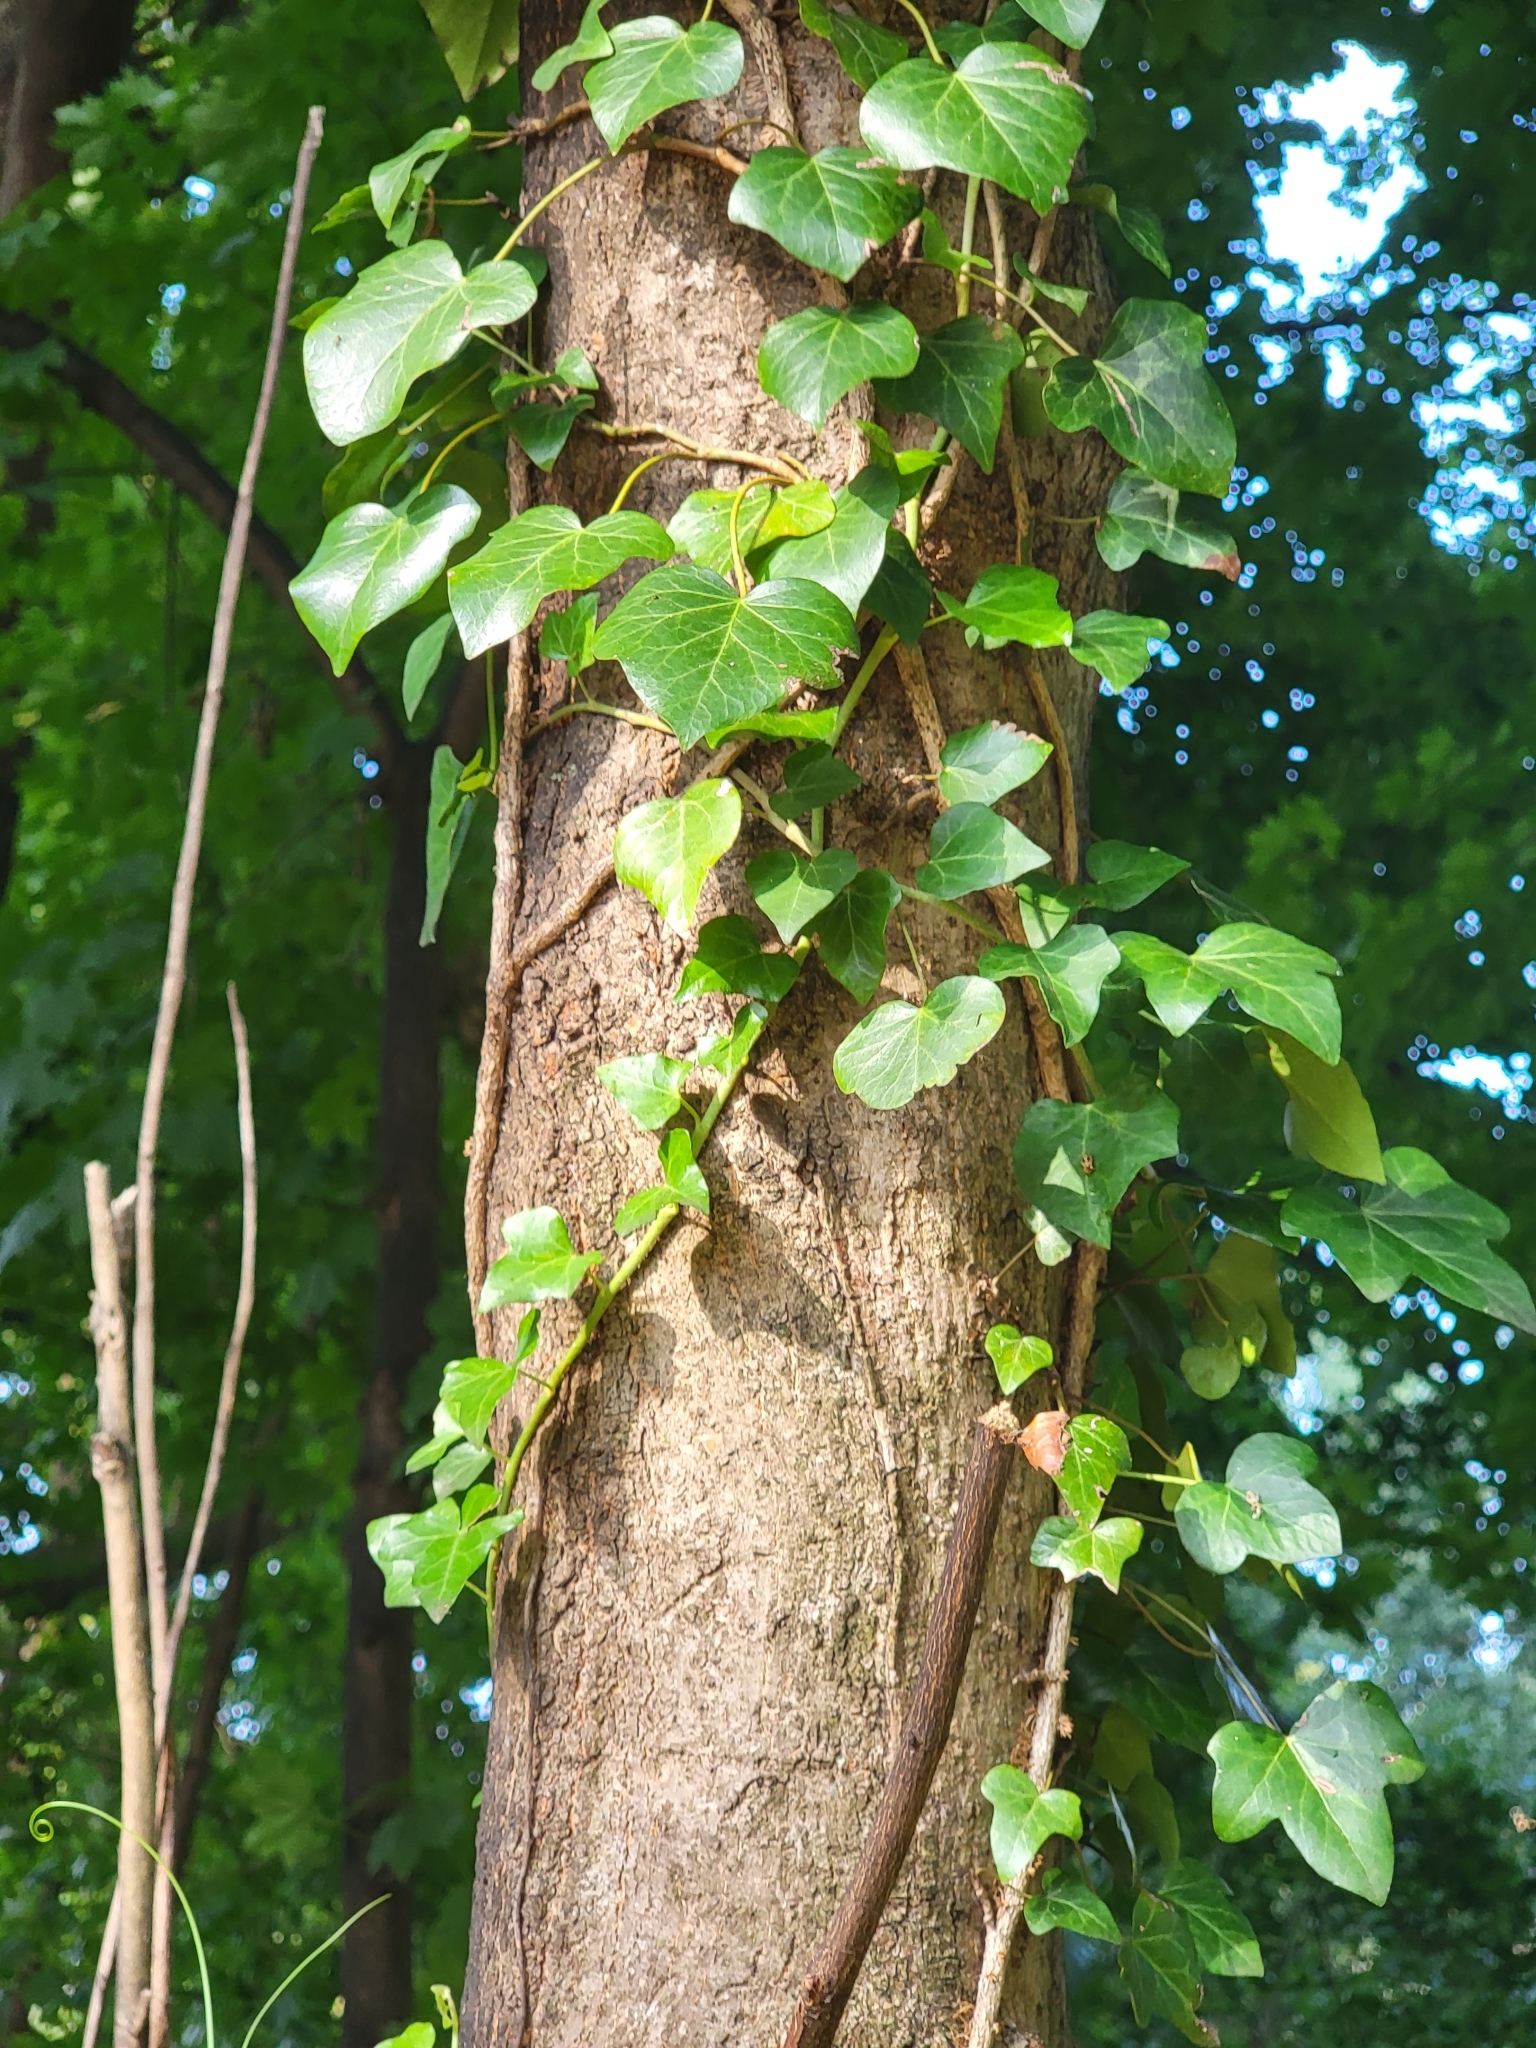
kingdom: Plantae
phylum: Tracheophyta
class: Magnoliopsida
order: Apiales
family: Araliaceae
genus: Hedera
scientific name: Hedera helix
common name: Ivy
